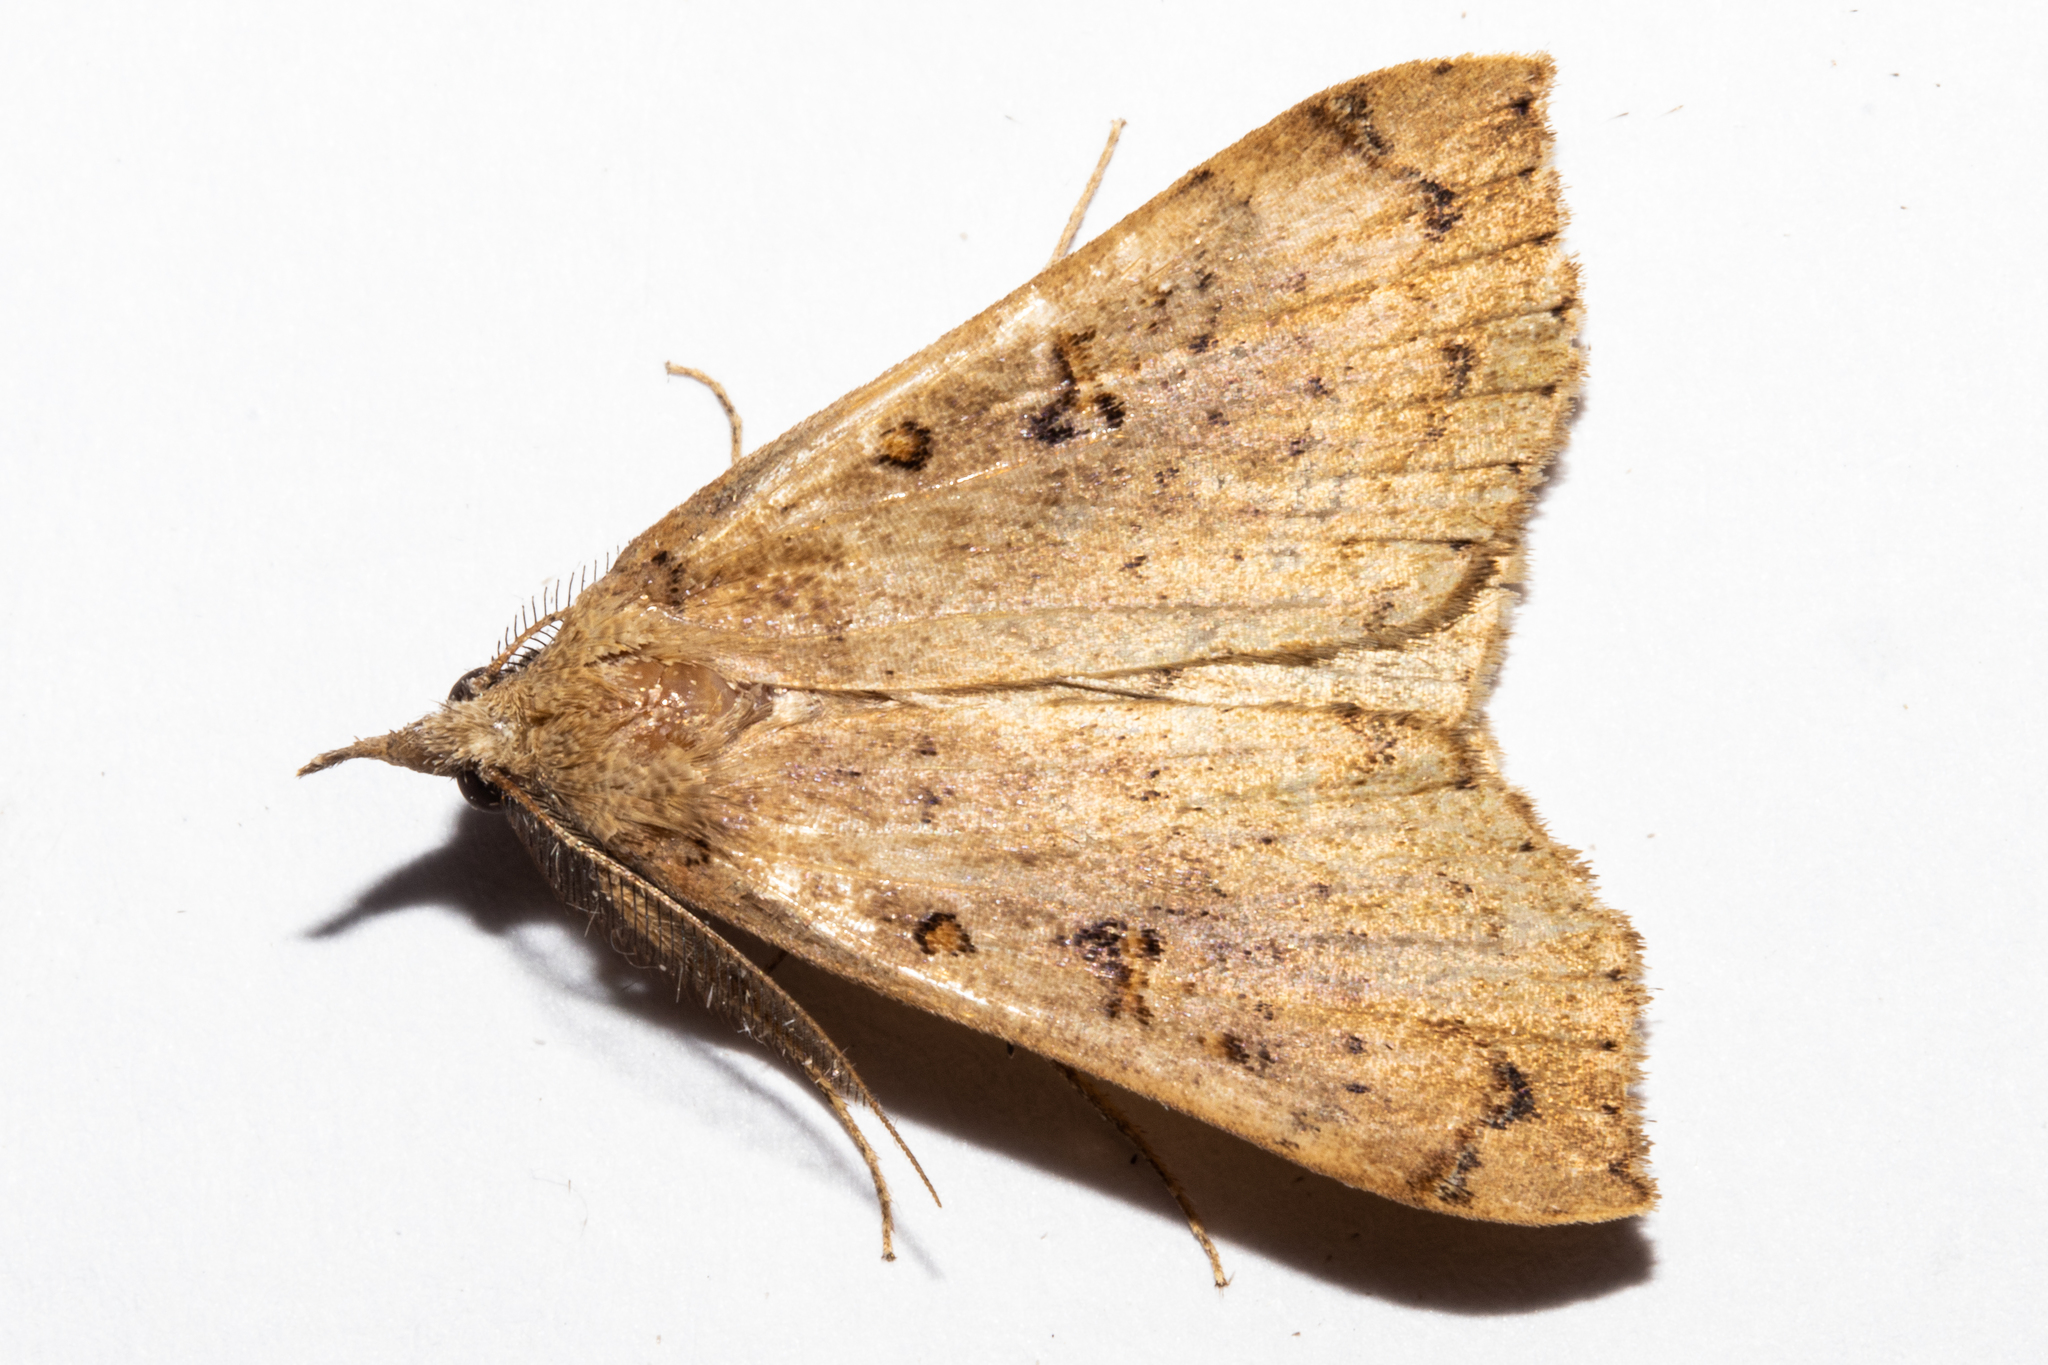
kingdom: Animalia
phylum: Arthropoda
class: Insecta
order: Lepidoptera
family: Erebidae
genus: Rhapsa
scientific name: Rhapsa scotosialis
